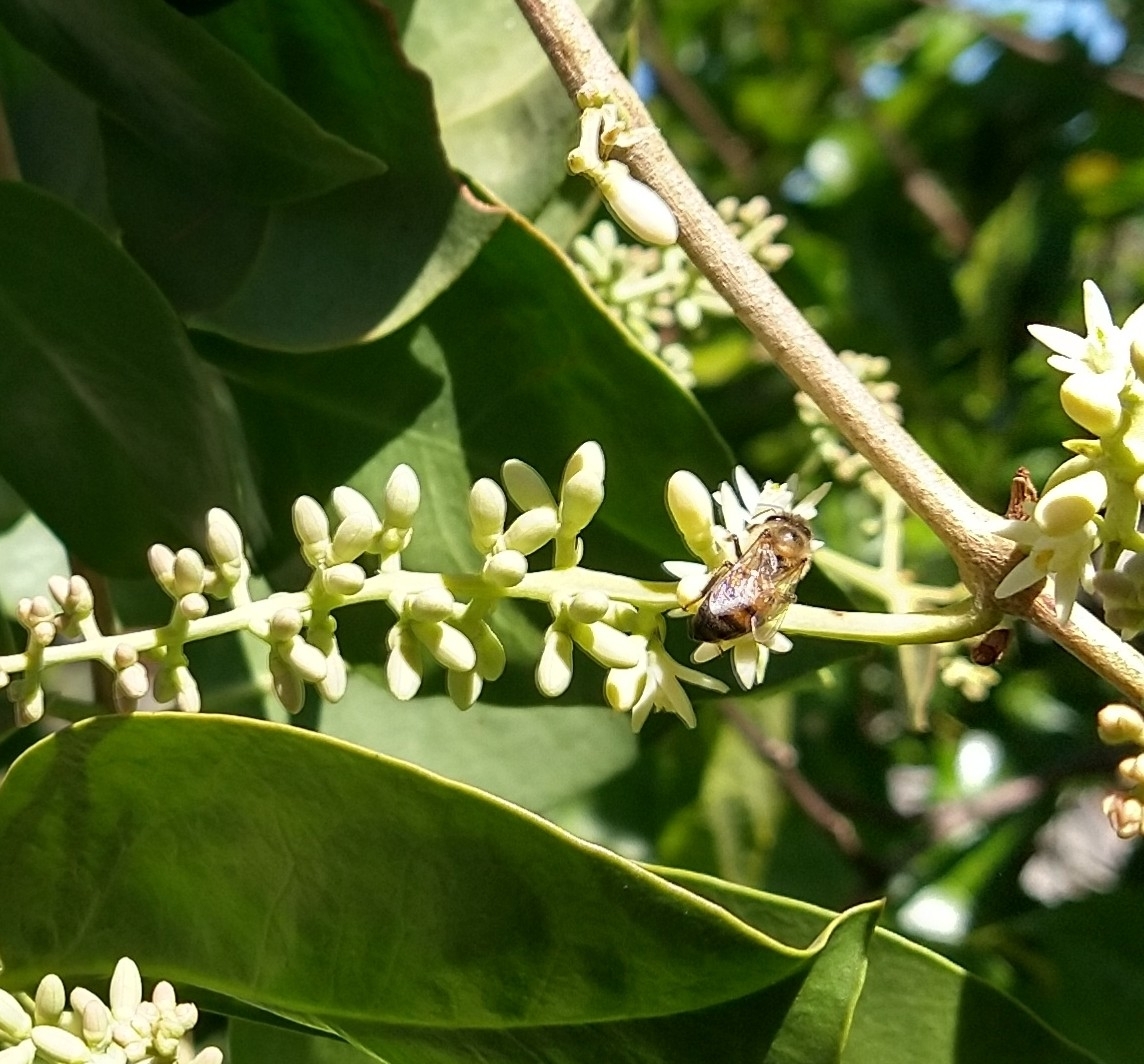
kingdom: Animalia
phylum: Arthropoda
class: Insecta
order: Hymenoptera
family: Apidae
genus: Apis
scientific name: Apis mellifera
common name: Honey bee
